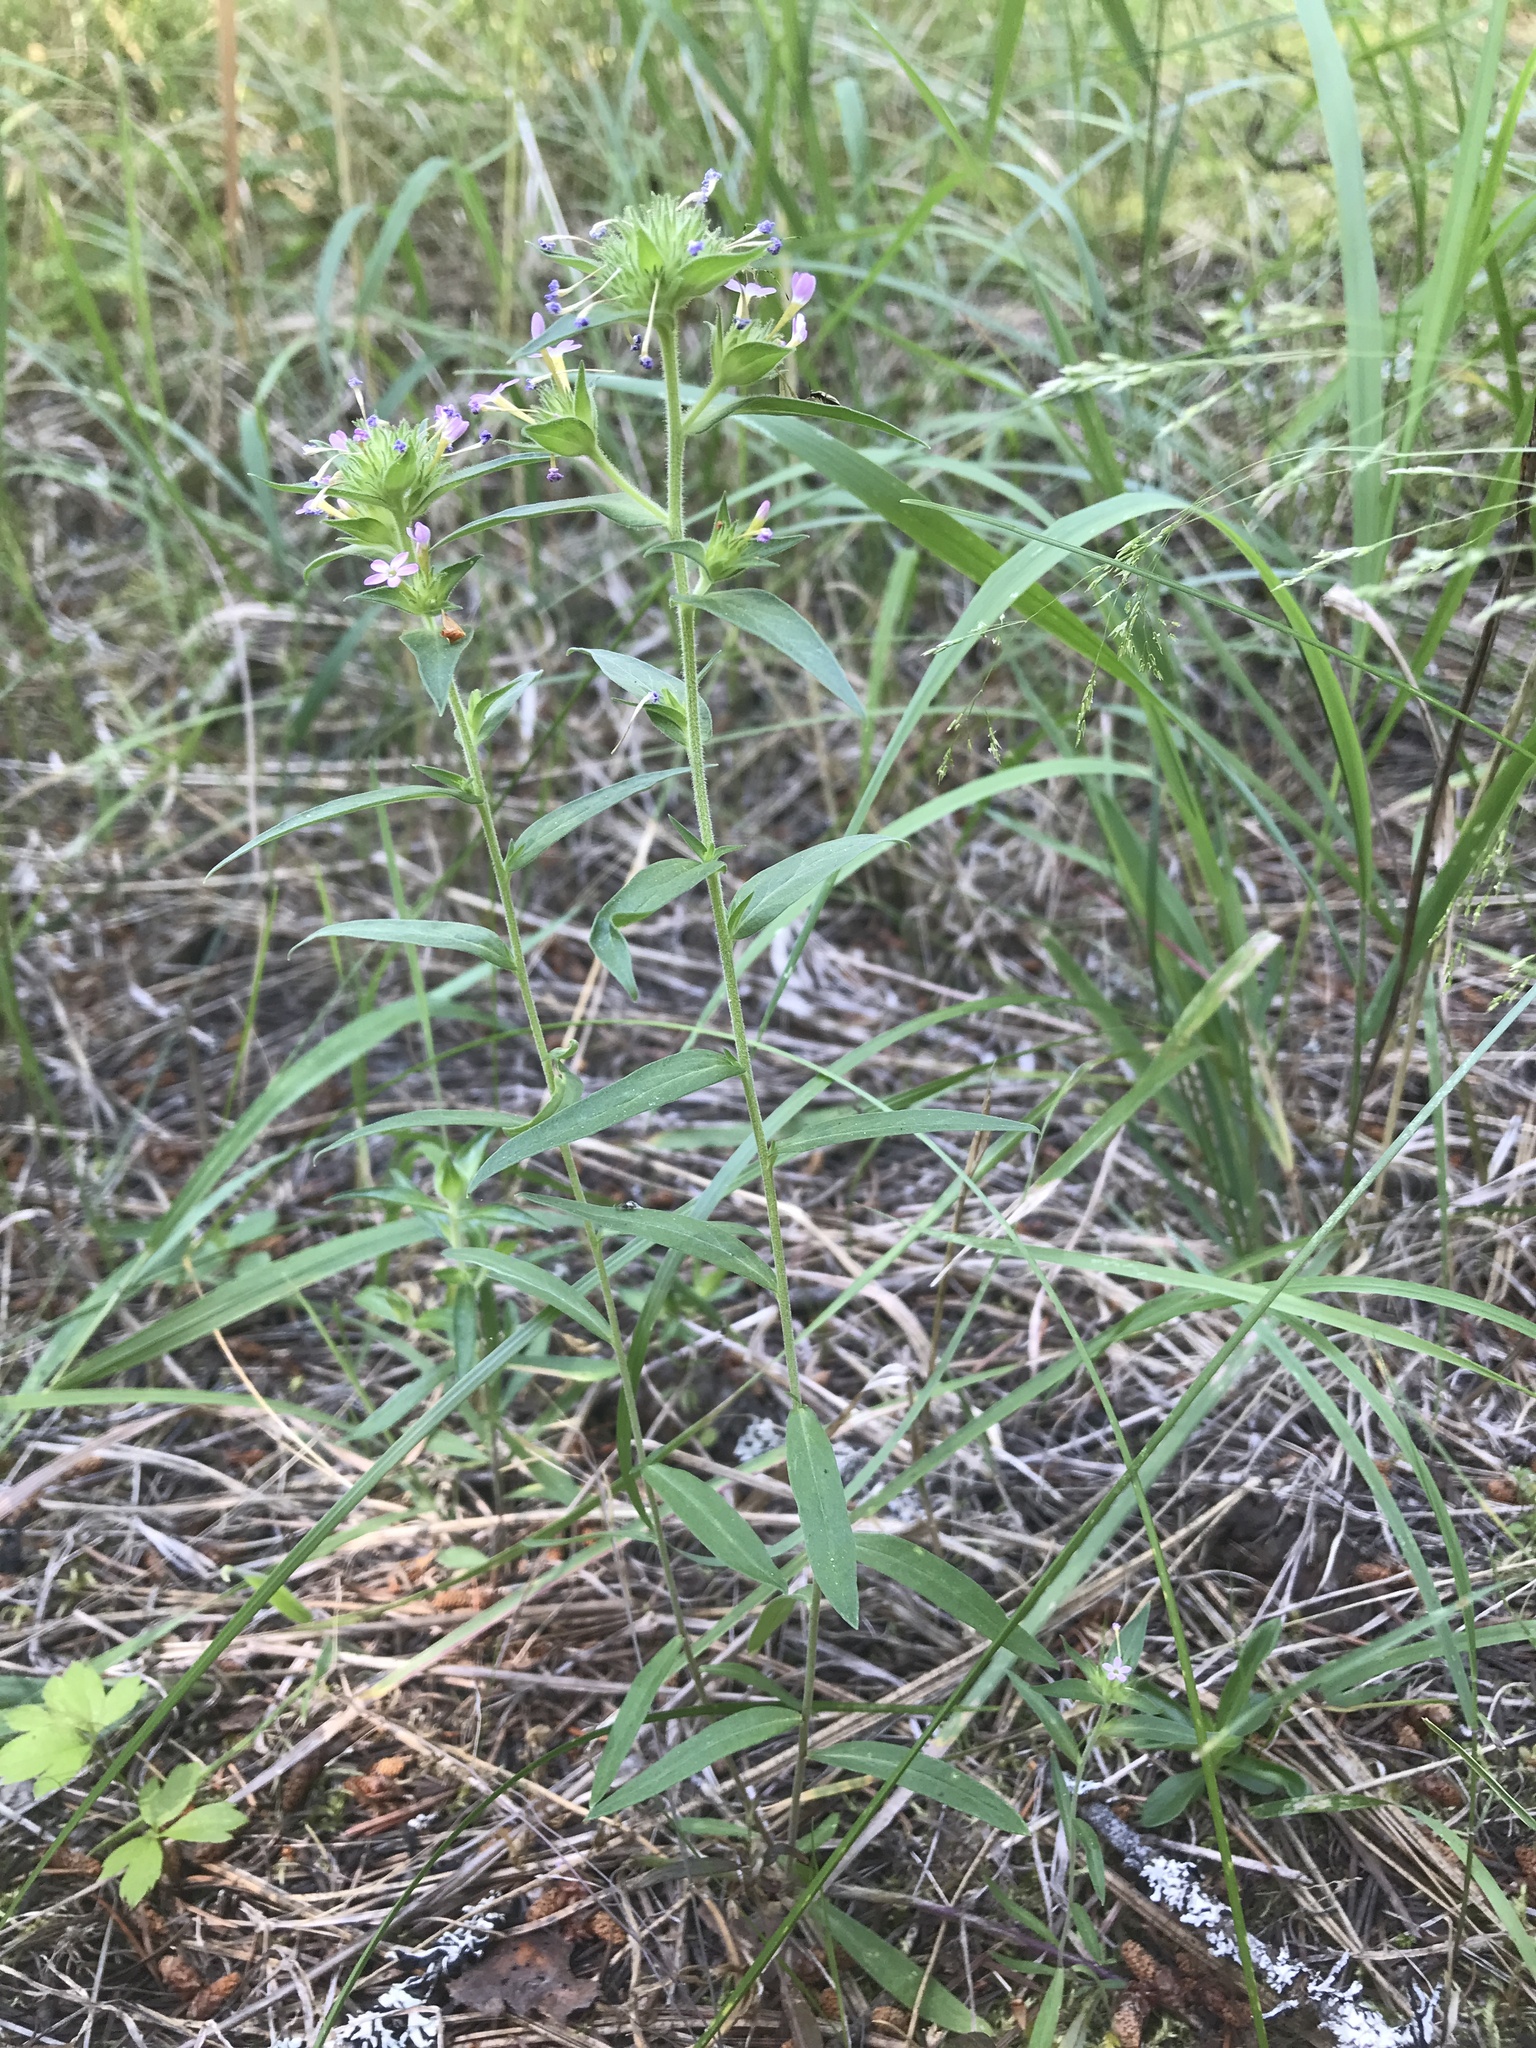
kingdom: Plantae
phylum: Tracheophyta
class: Magnoliopsida
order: Ericales
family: Polemoniaceae
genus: Collomia
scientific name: Collomia linearis
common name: Tiny trumpet
